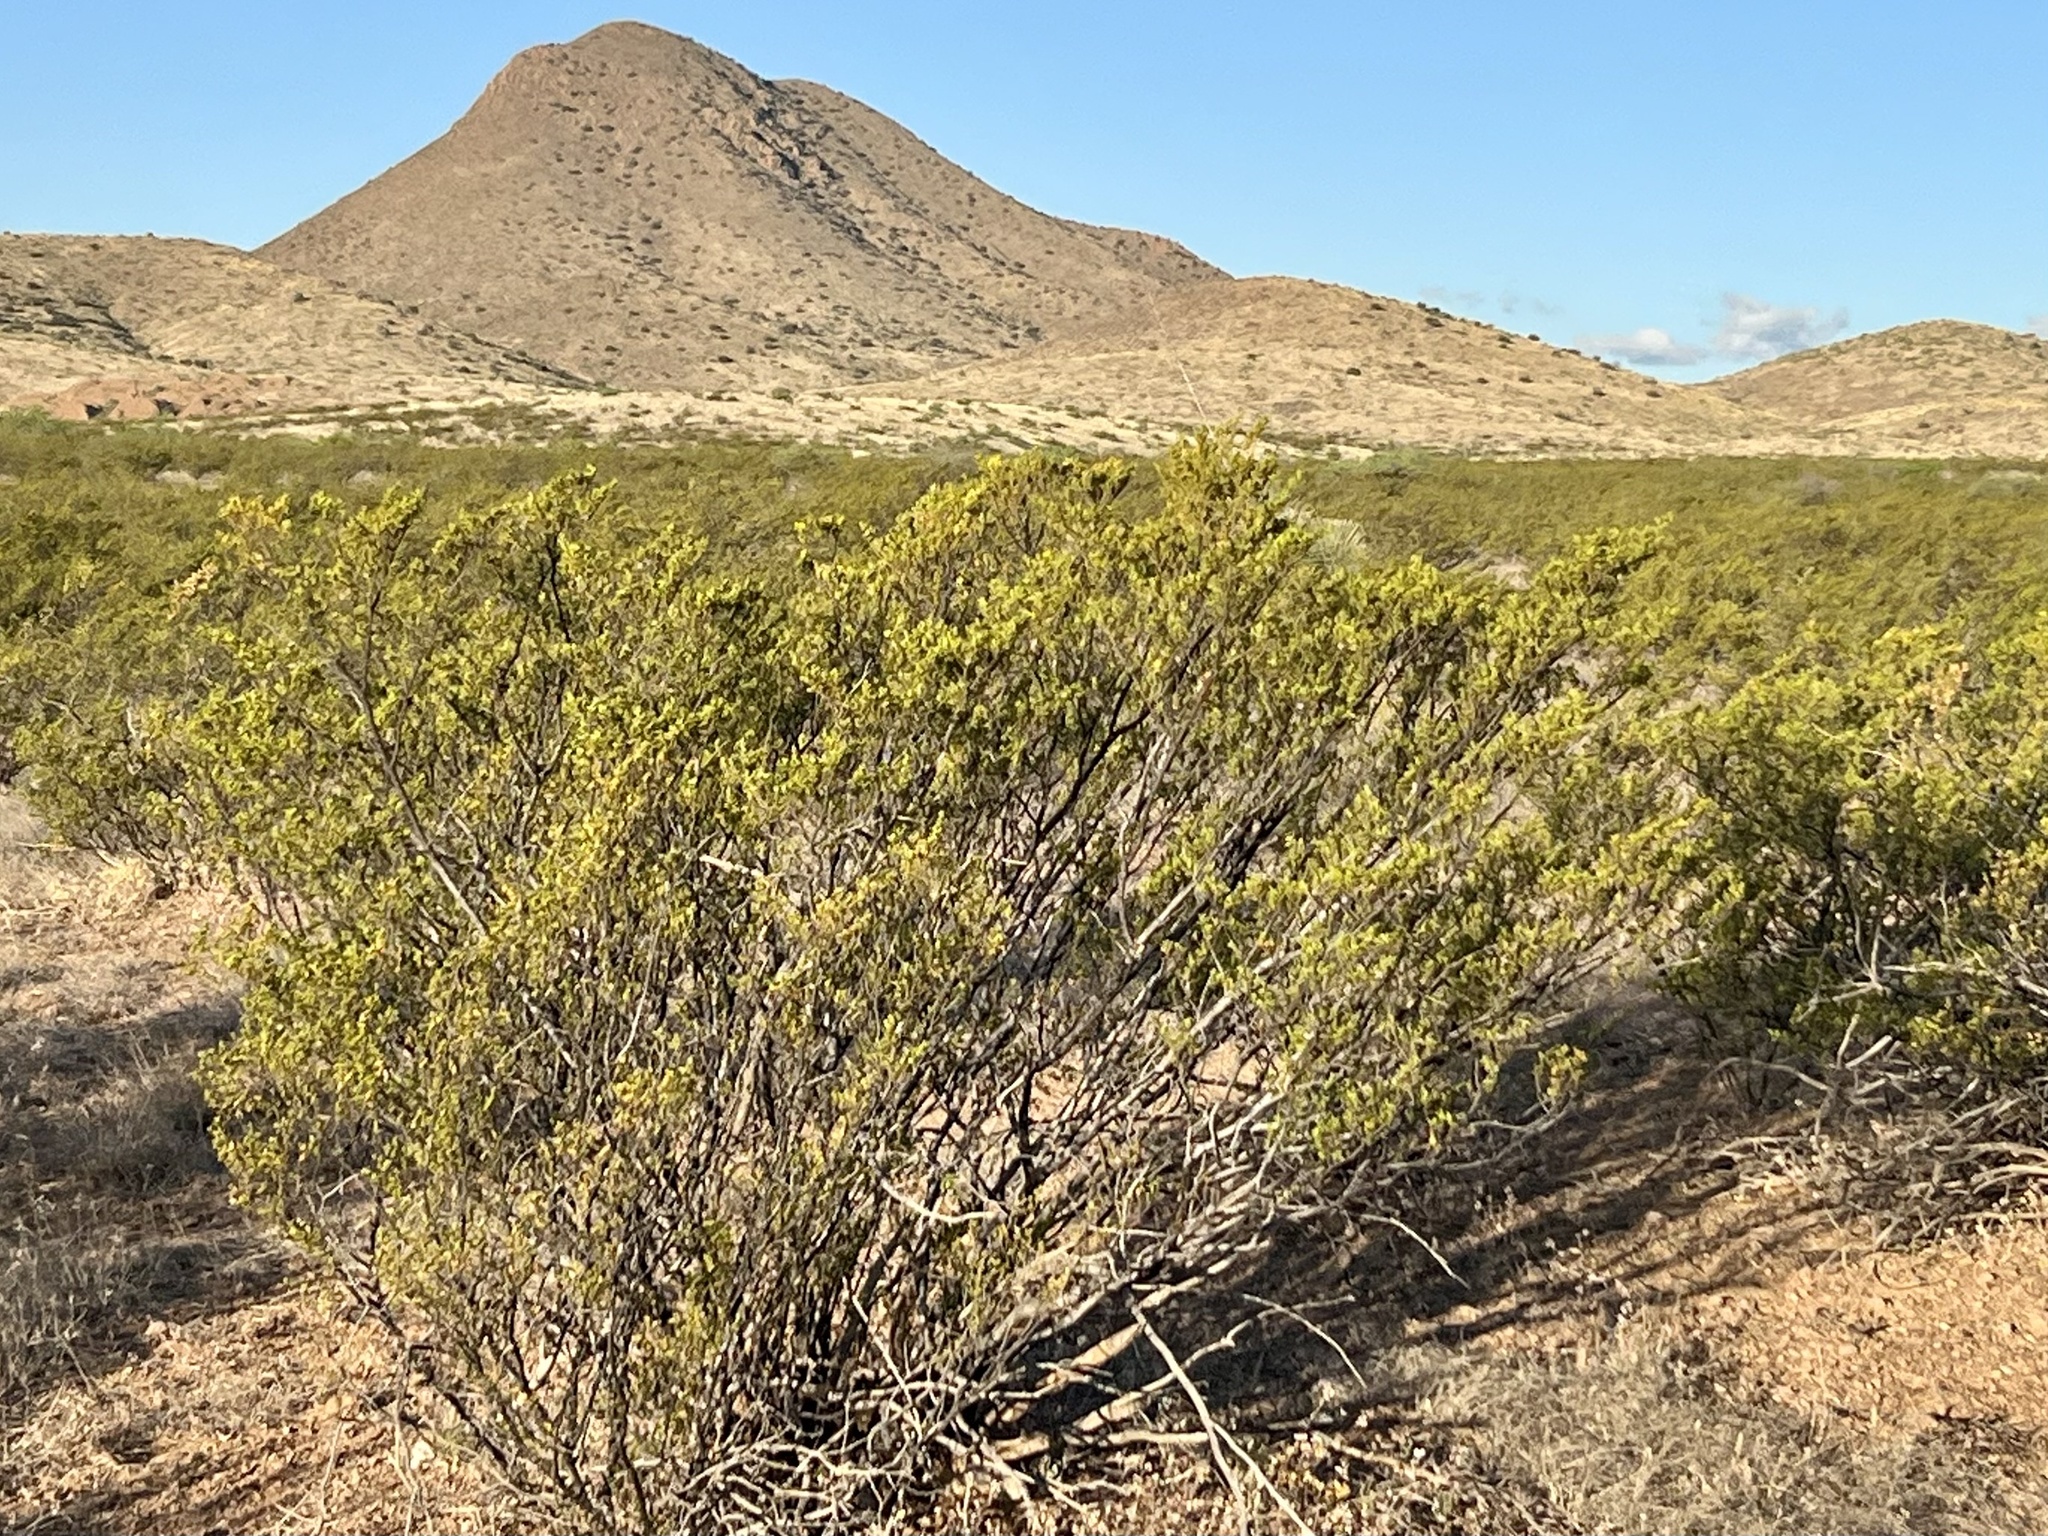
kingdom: Plantae
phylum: Tracheophyta
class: Magnoliopsida
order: Zygophyllales
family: Zygophyllaceae
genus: Larrea
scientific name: Larrea tridentata
